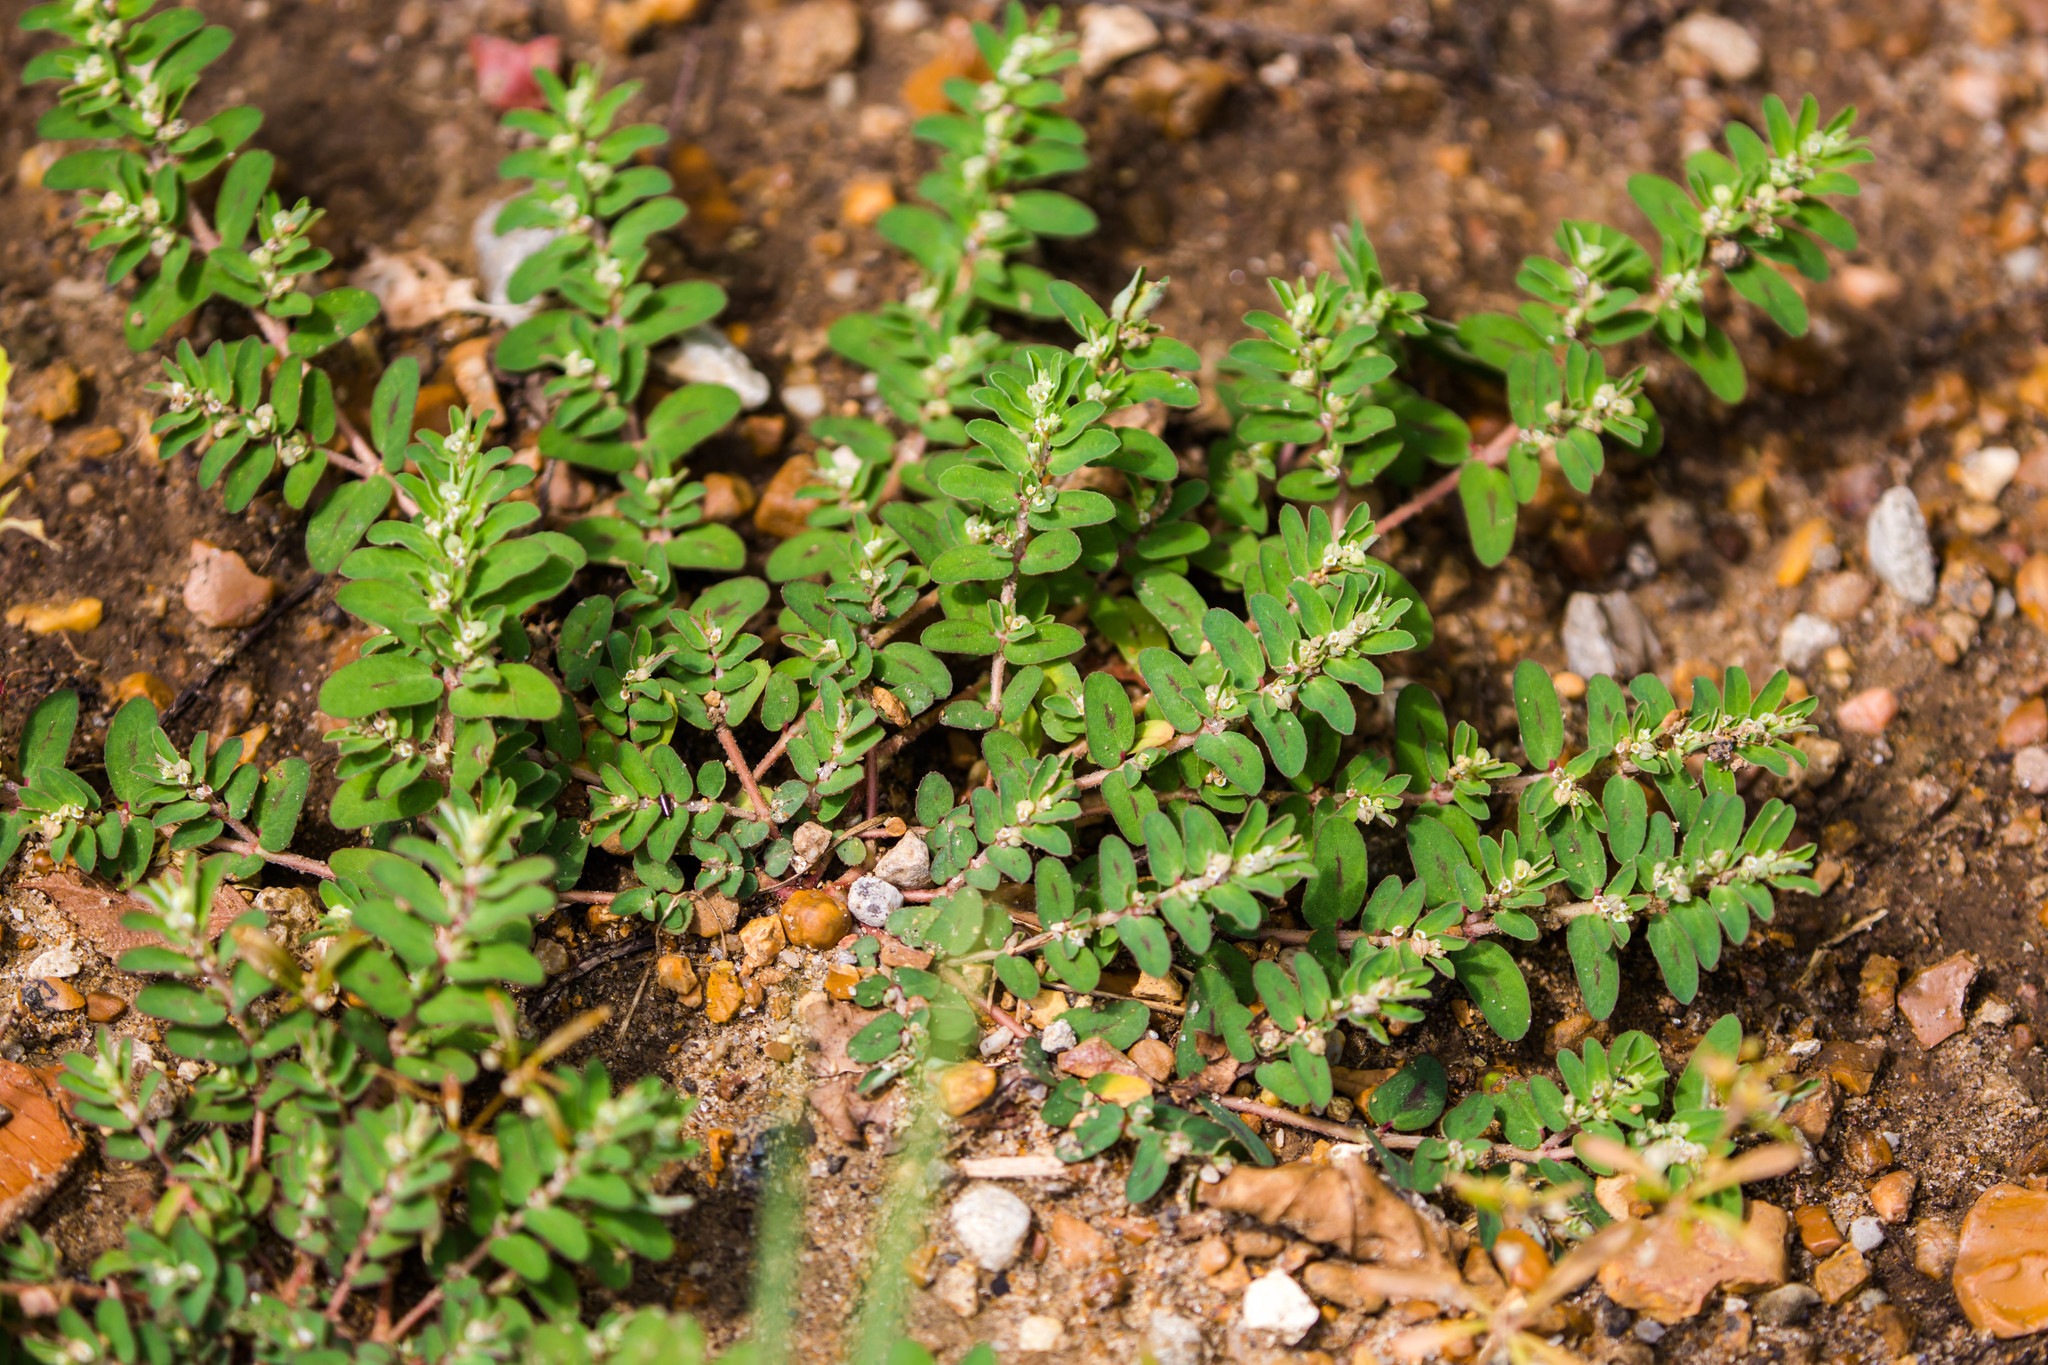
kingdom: Plantae
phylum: Tracheophyta
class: Magnoliopsida
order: Malpighiales
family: Euphorbiaceae
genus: Euphorbia
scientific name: Euphorbia maculata
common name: Spotted spurge
